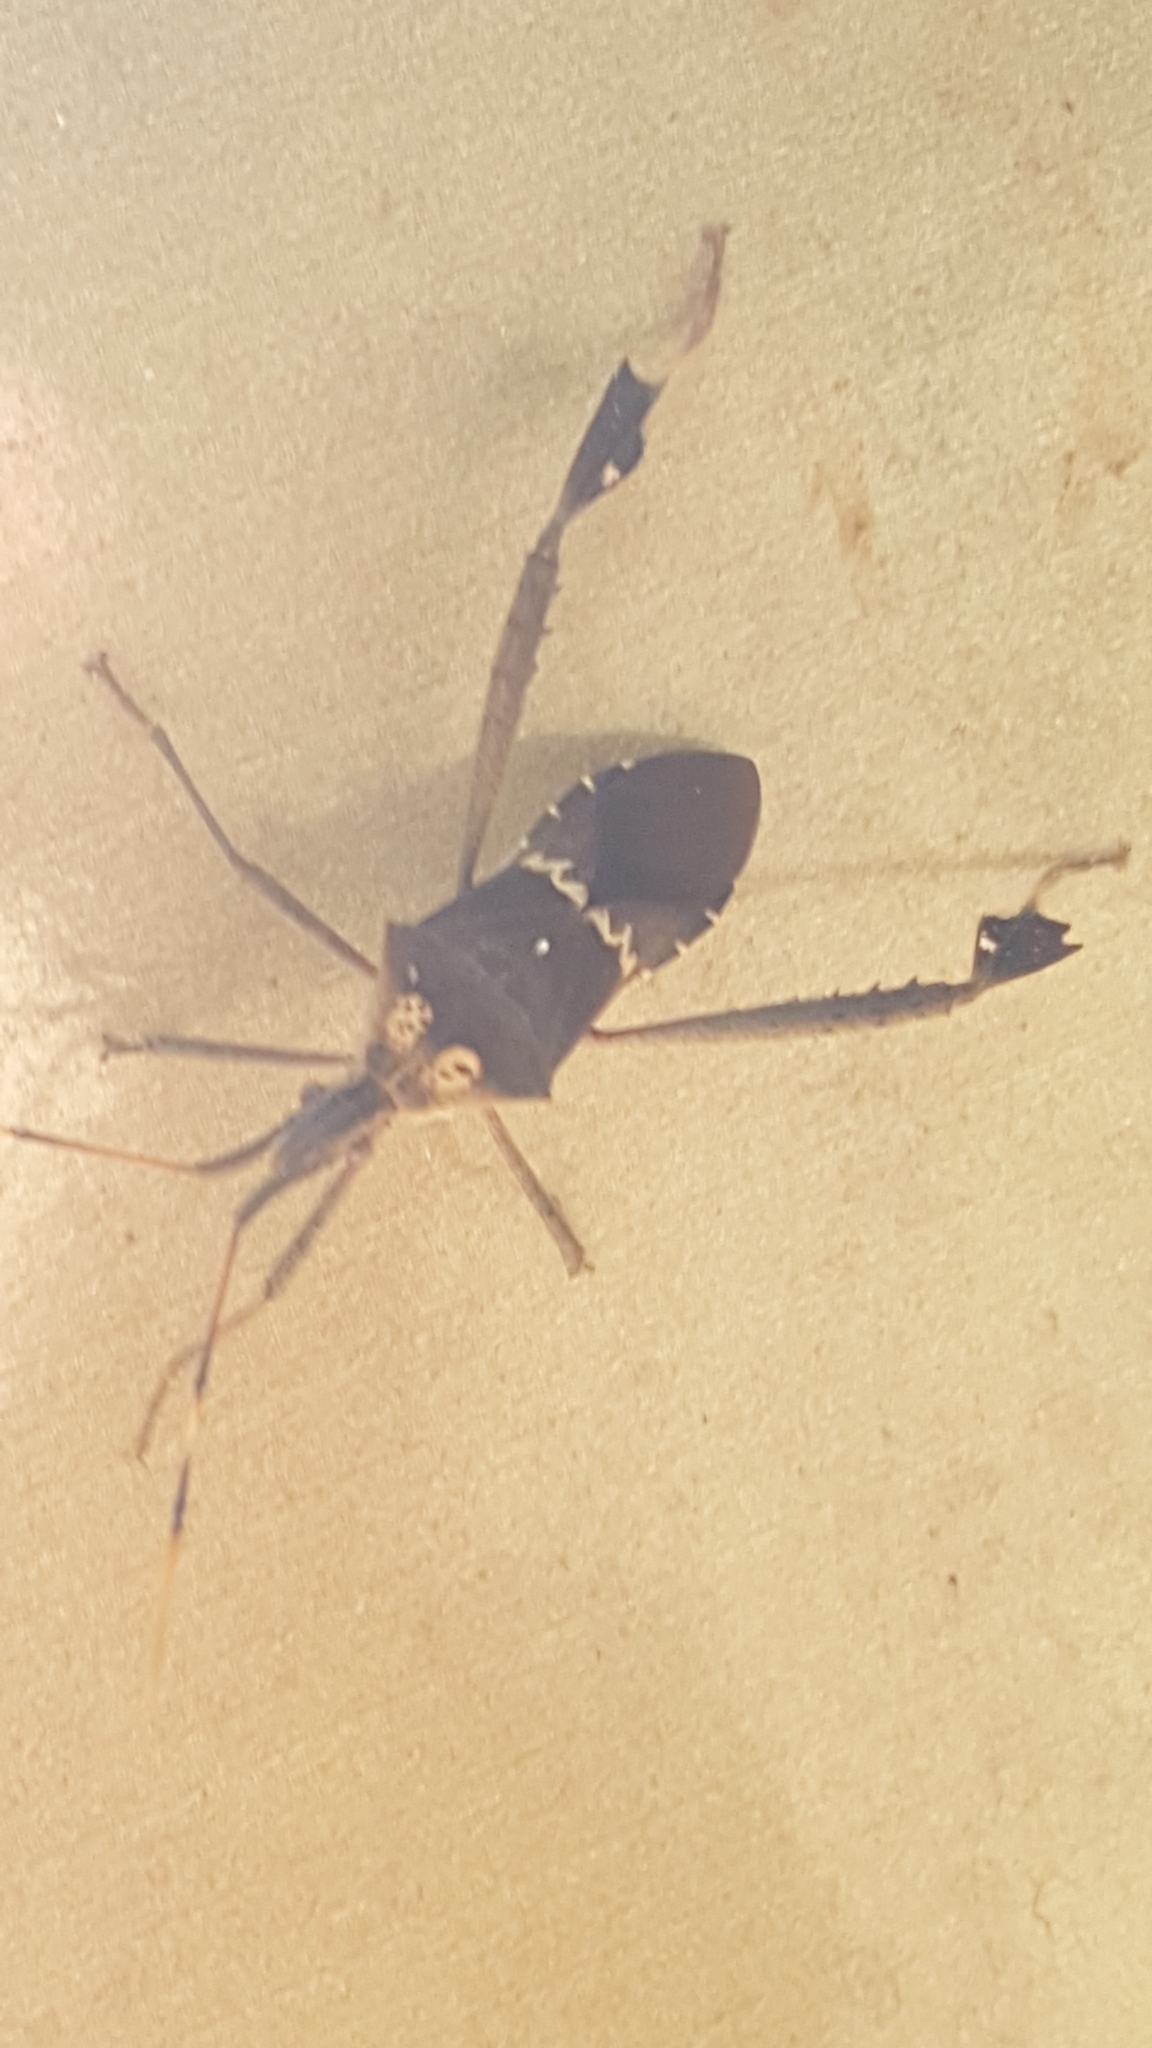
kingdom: Animalia
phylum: Arthropoda
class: Insecta
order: Hemiptera
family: Coreidae
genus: Leptoglossus
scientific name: Leptoglossus zonatus
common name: Large-legged bug
